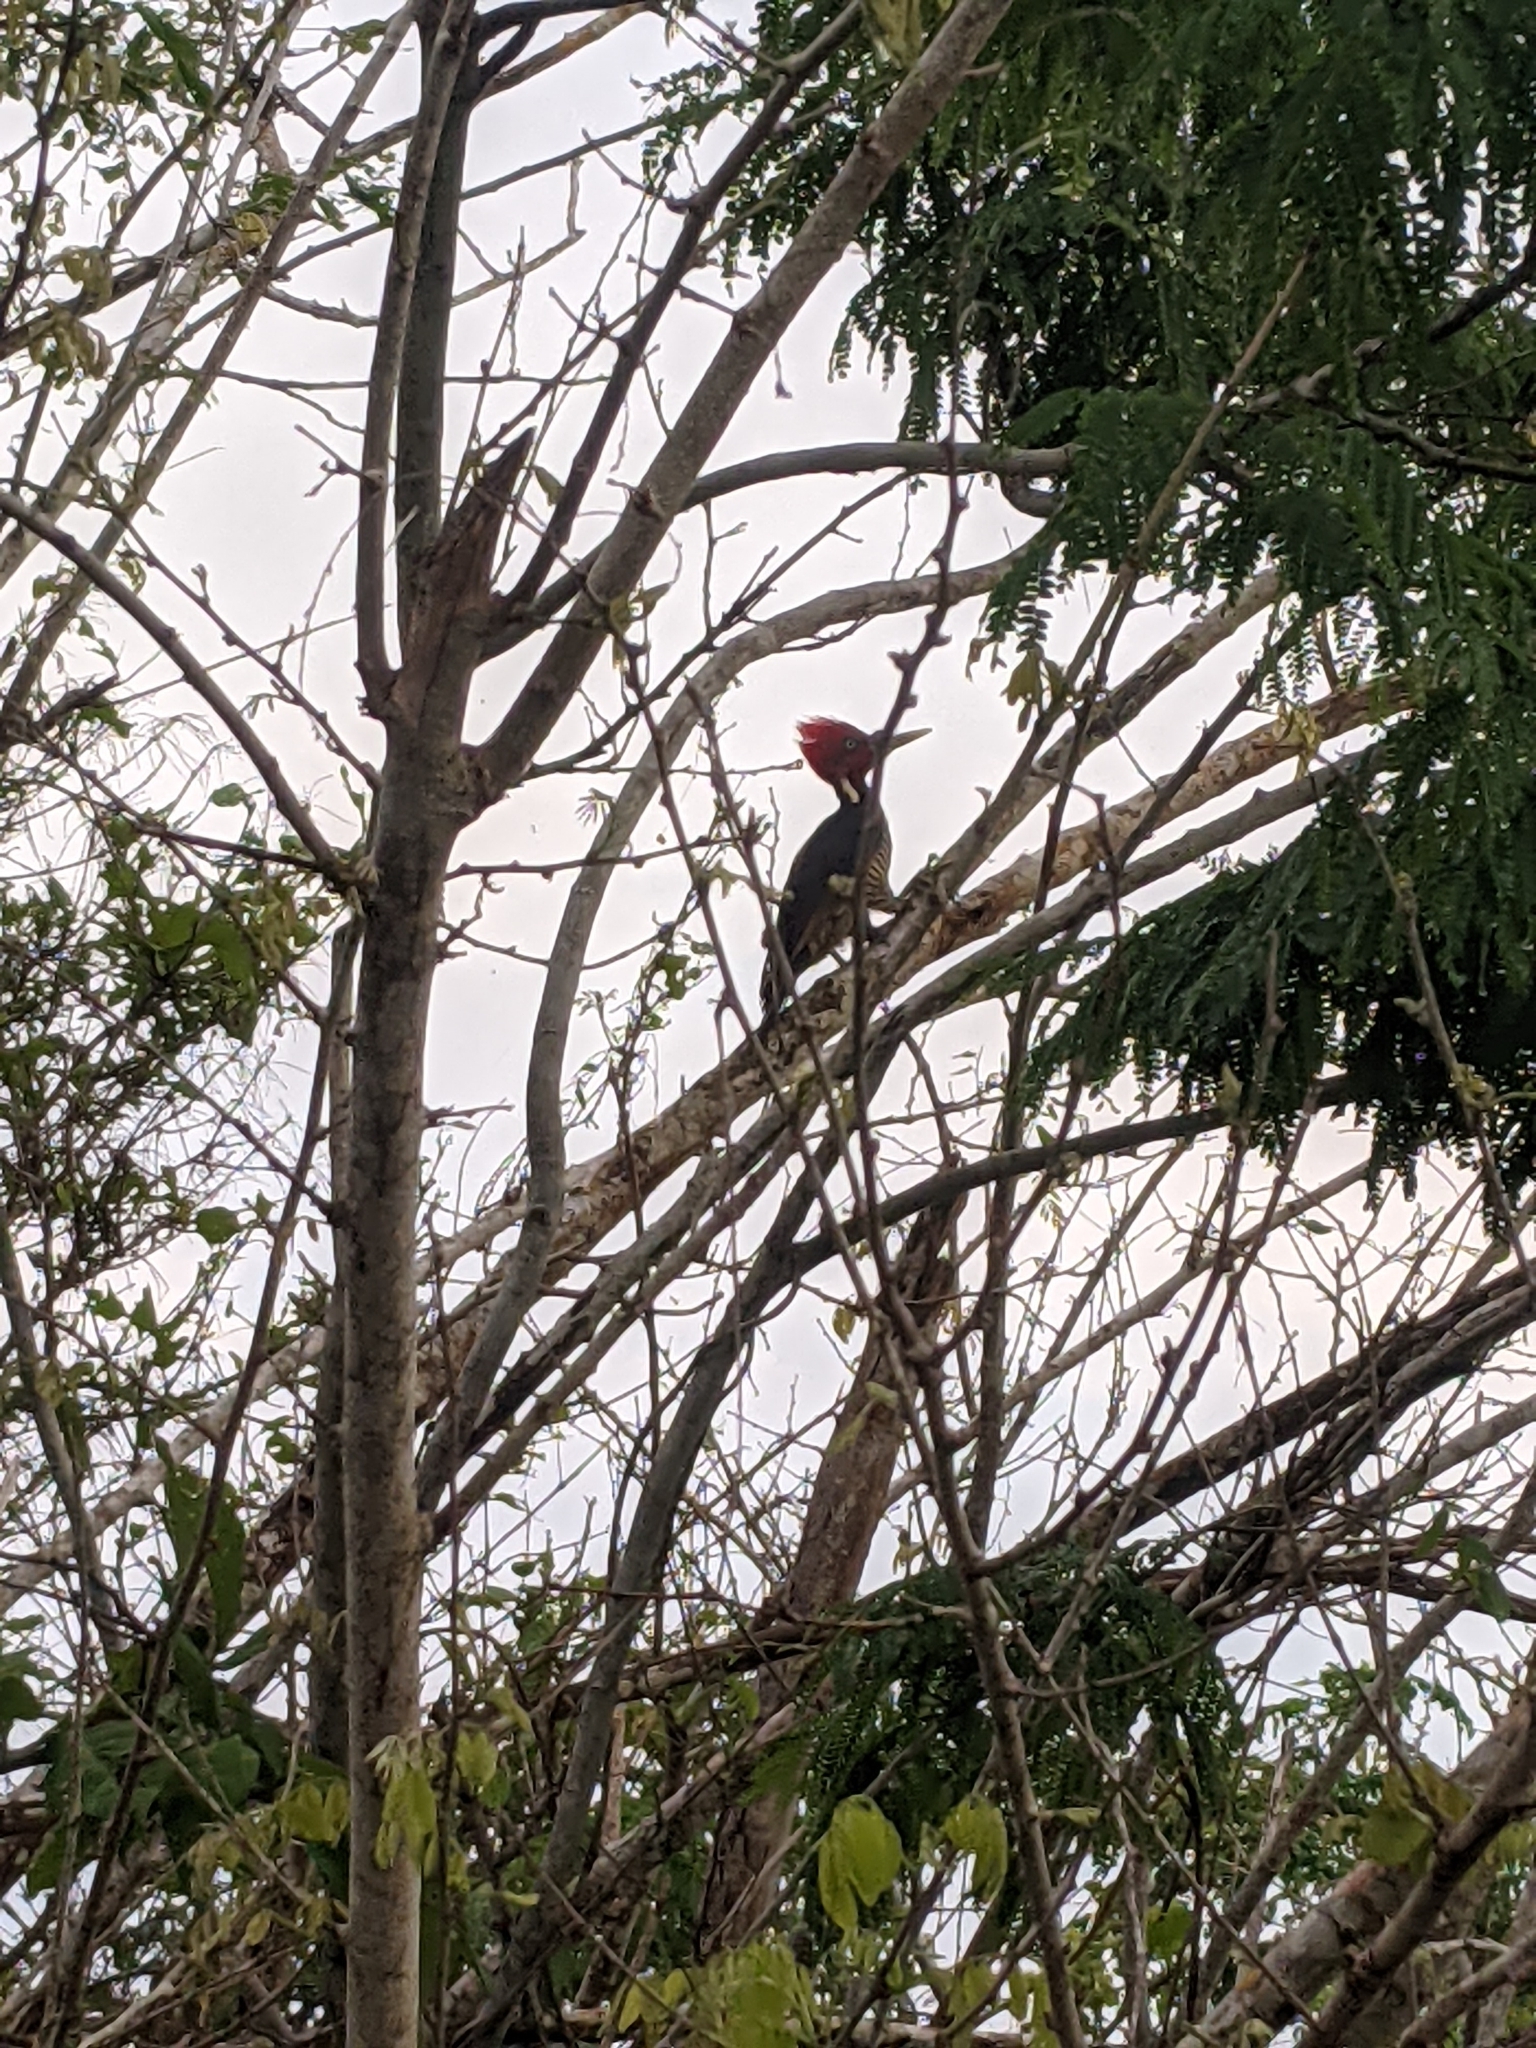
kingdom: Animalia
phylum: Chordata
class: Aves
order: Piciformes
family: Picidae
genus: Campephilus
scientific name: Campephilus guatemalensis
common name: Pale-billed woodpecker
